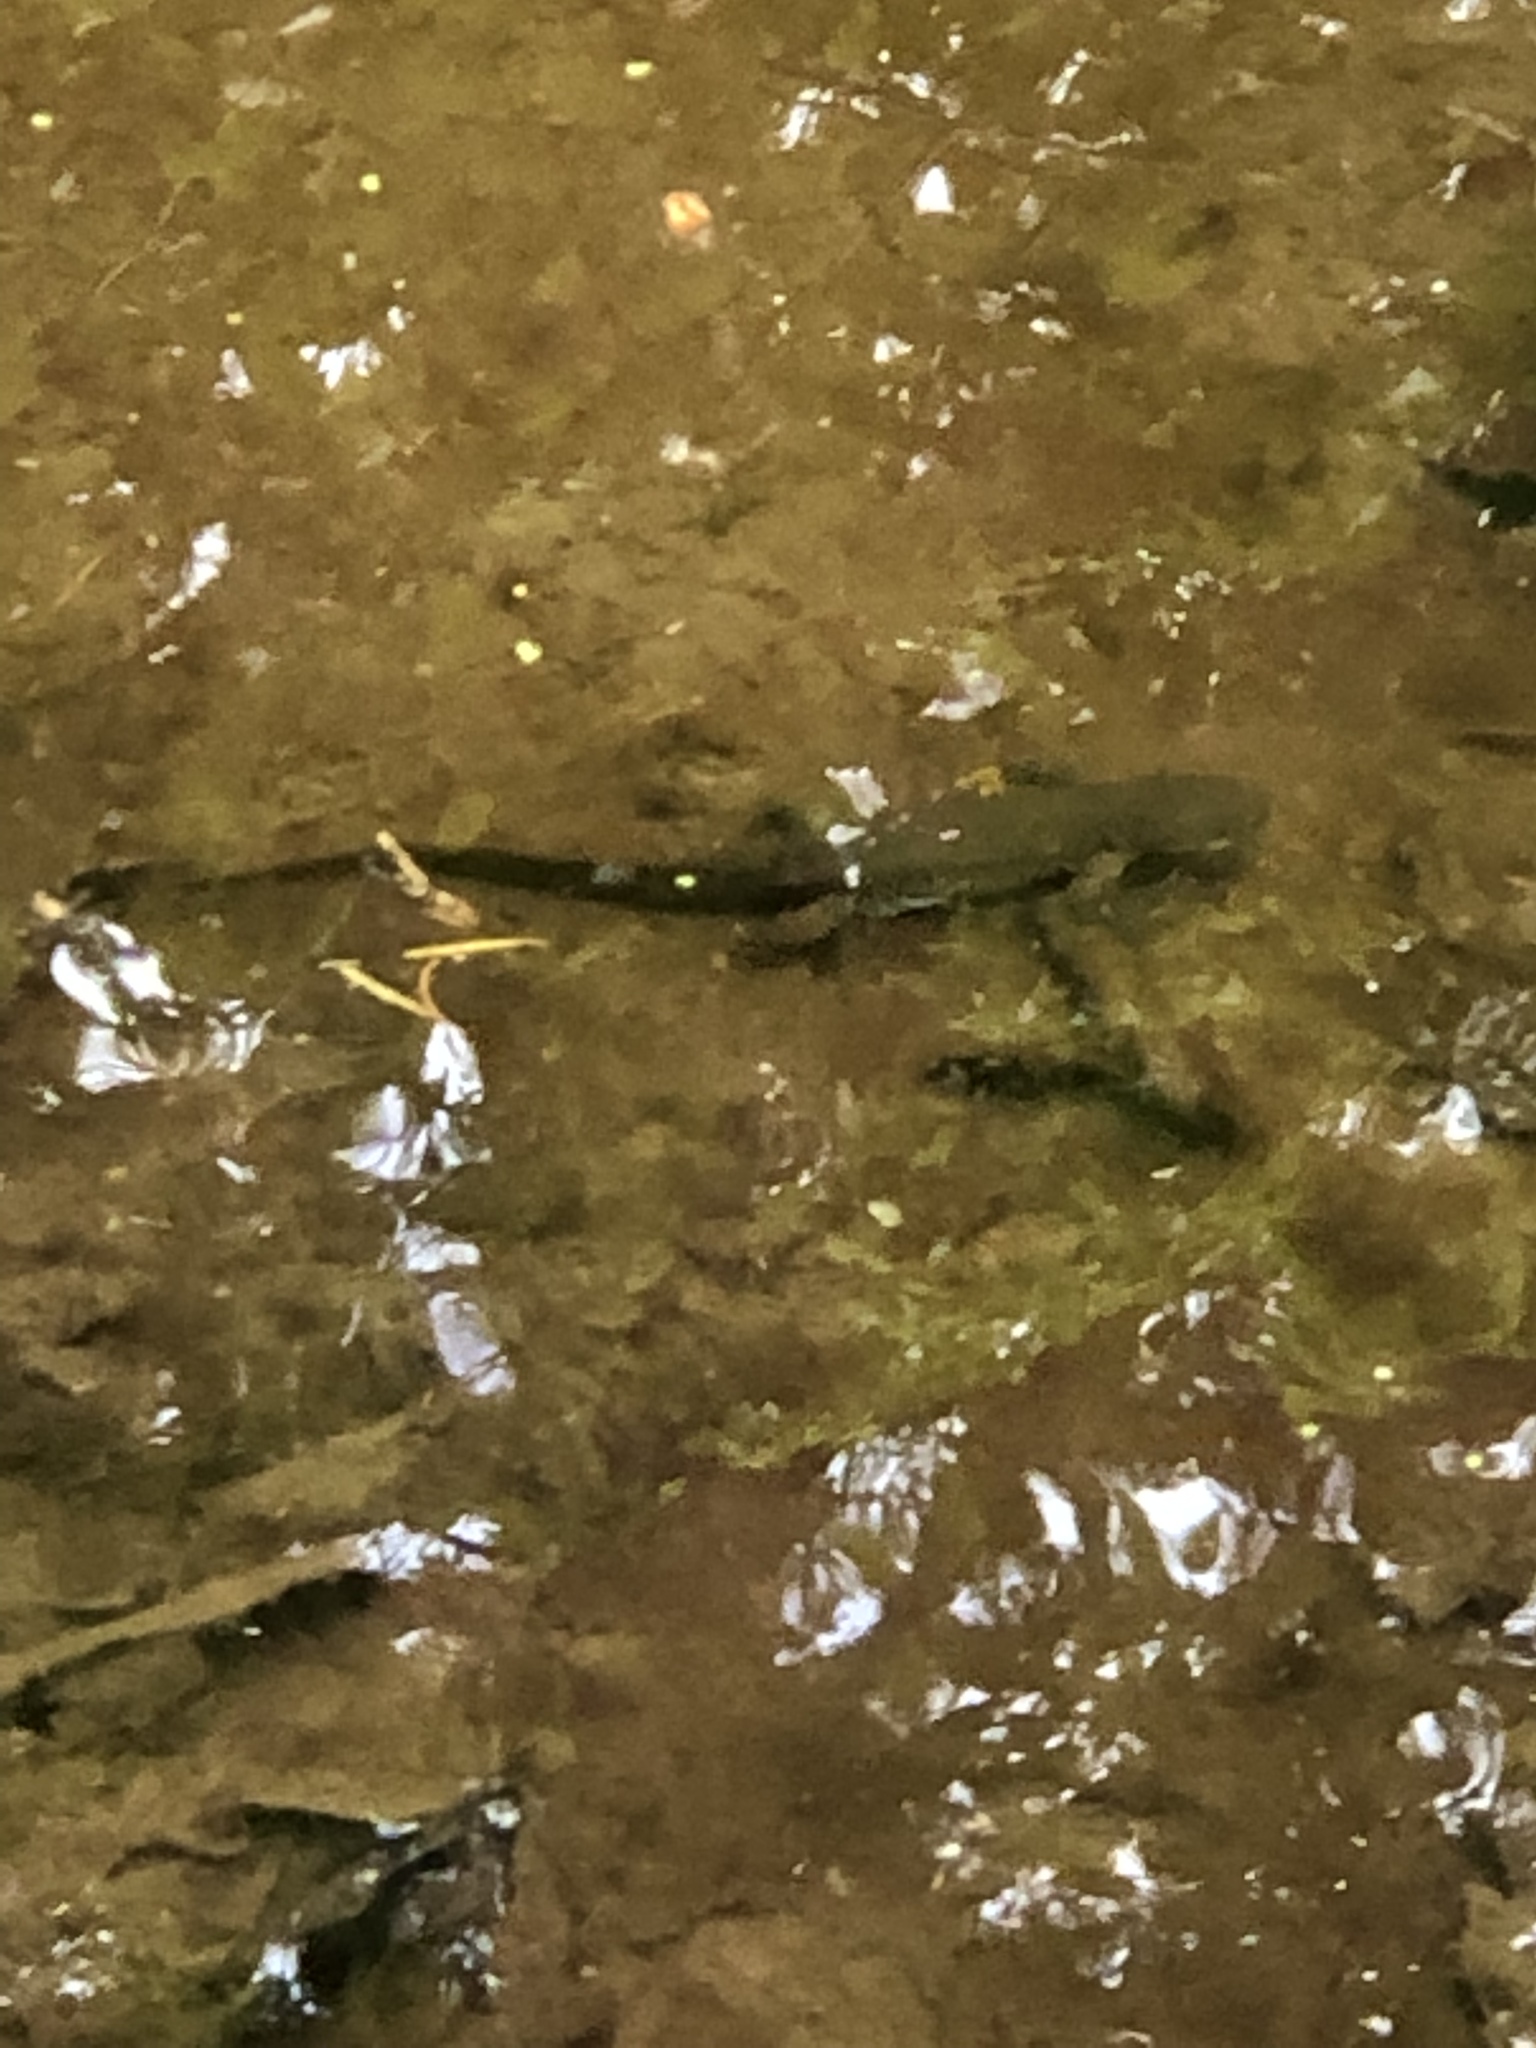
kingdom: Animalia
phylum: Chordata
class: Amphibia
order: Caudata
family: Salamandridae
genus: Taricha
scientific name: Taricha granulosa
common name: Roughskin newt
